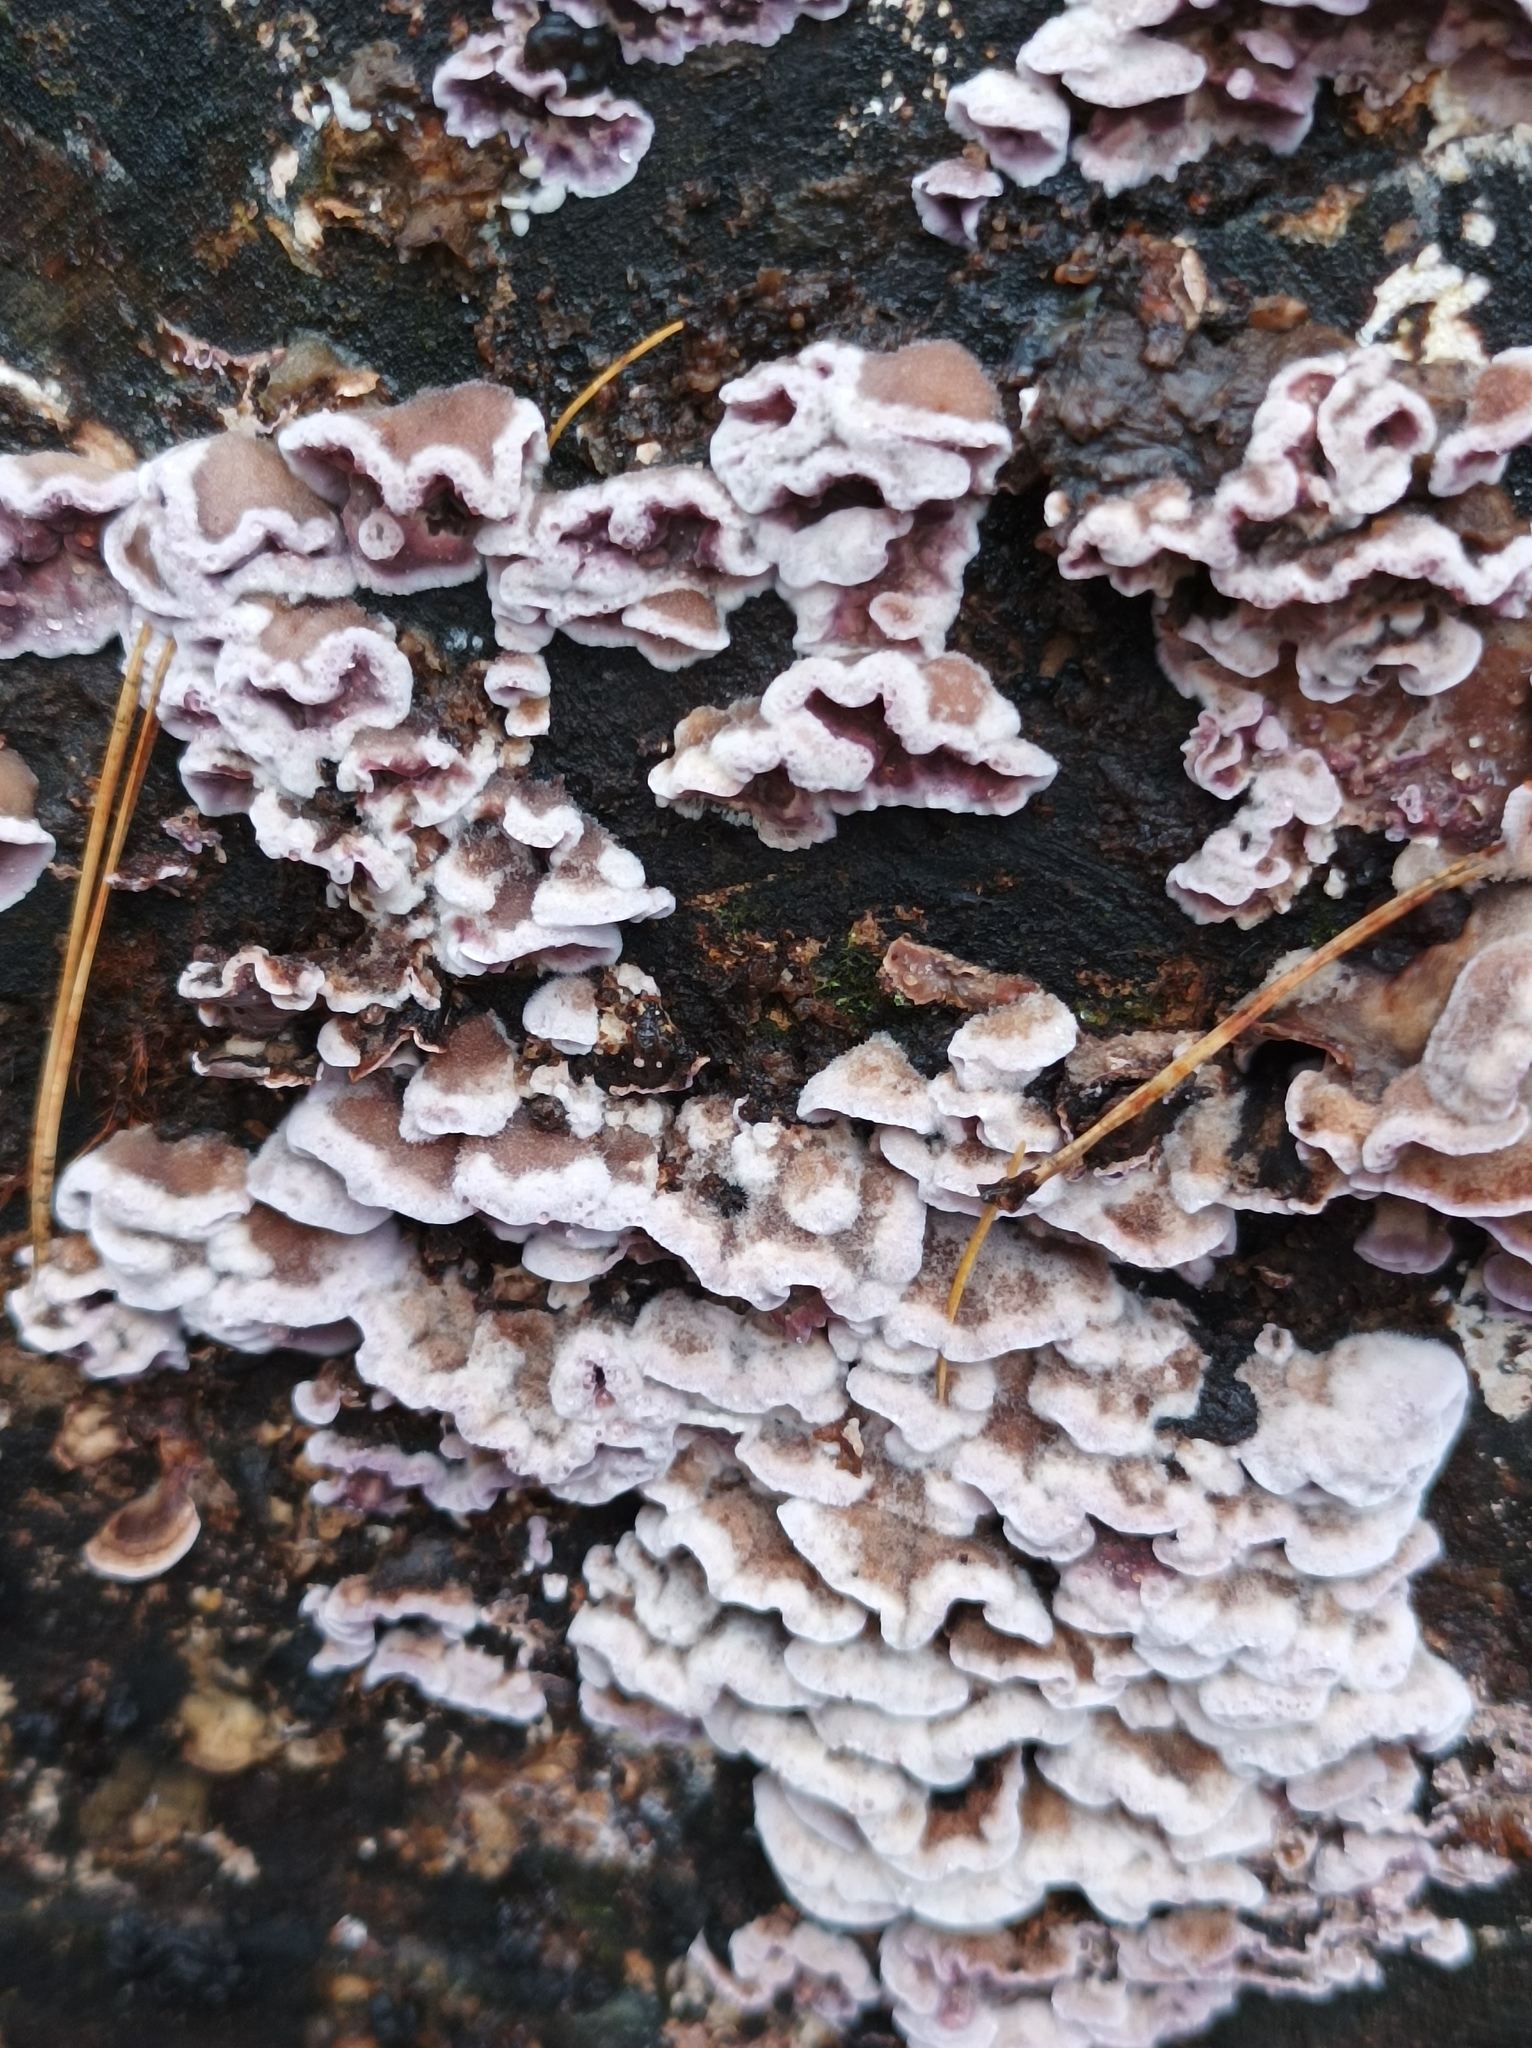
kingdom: Fungi
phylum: Basidiomycota
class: Agaricomycetes
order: Agaricales
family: Cyphellaceae
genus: Chondrostereum
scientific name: Chondrostereum purpureum
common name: Silver leaf disease
